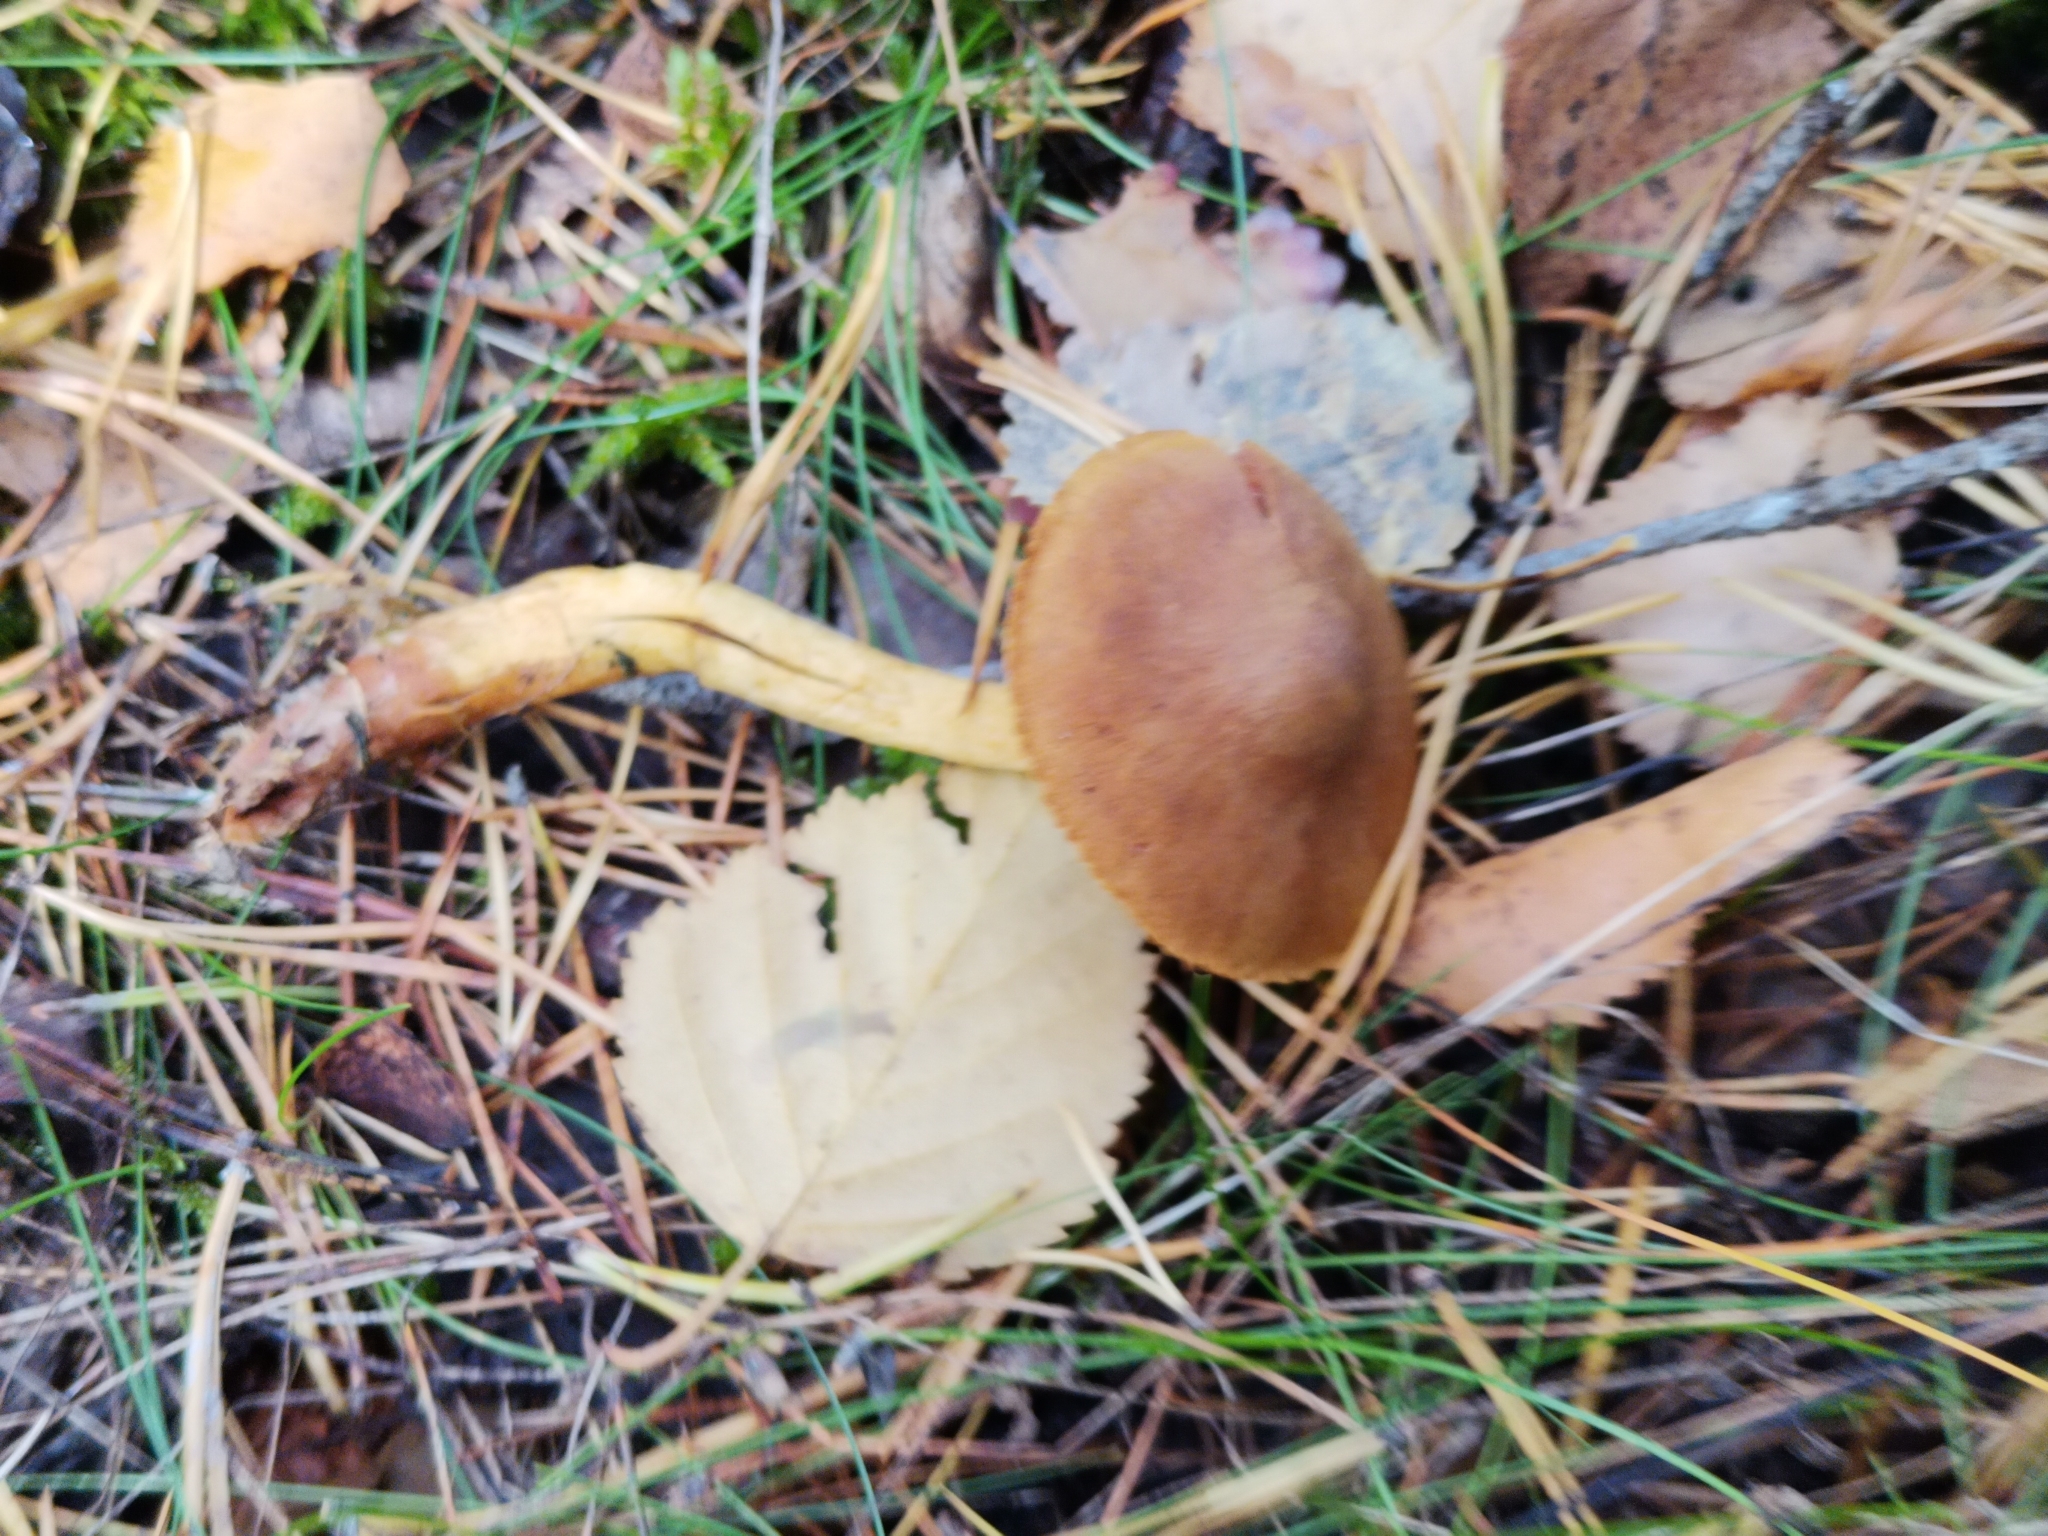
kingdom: Fungi
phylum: Basidiomycota
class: Agaricomycetes
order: Agaricales
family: Cortinariaceae
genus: Cortinarius
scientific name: Cortinarius semisanguineus
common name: Surprise webcap
